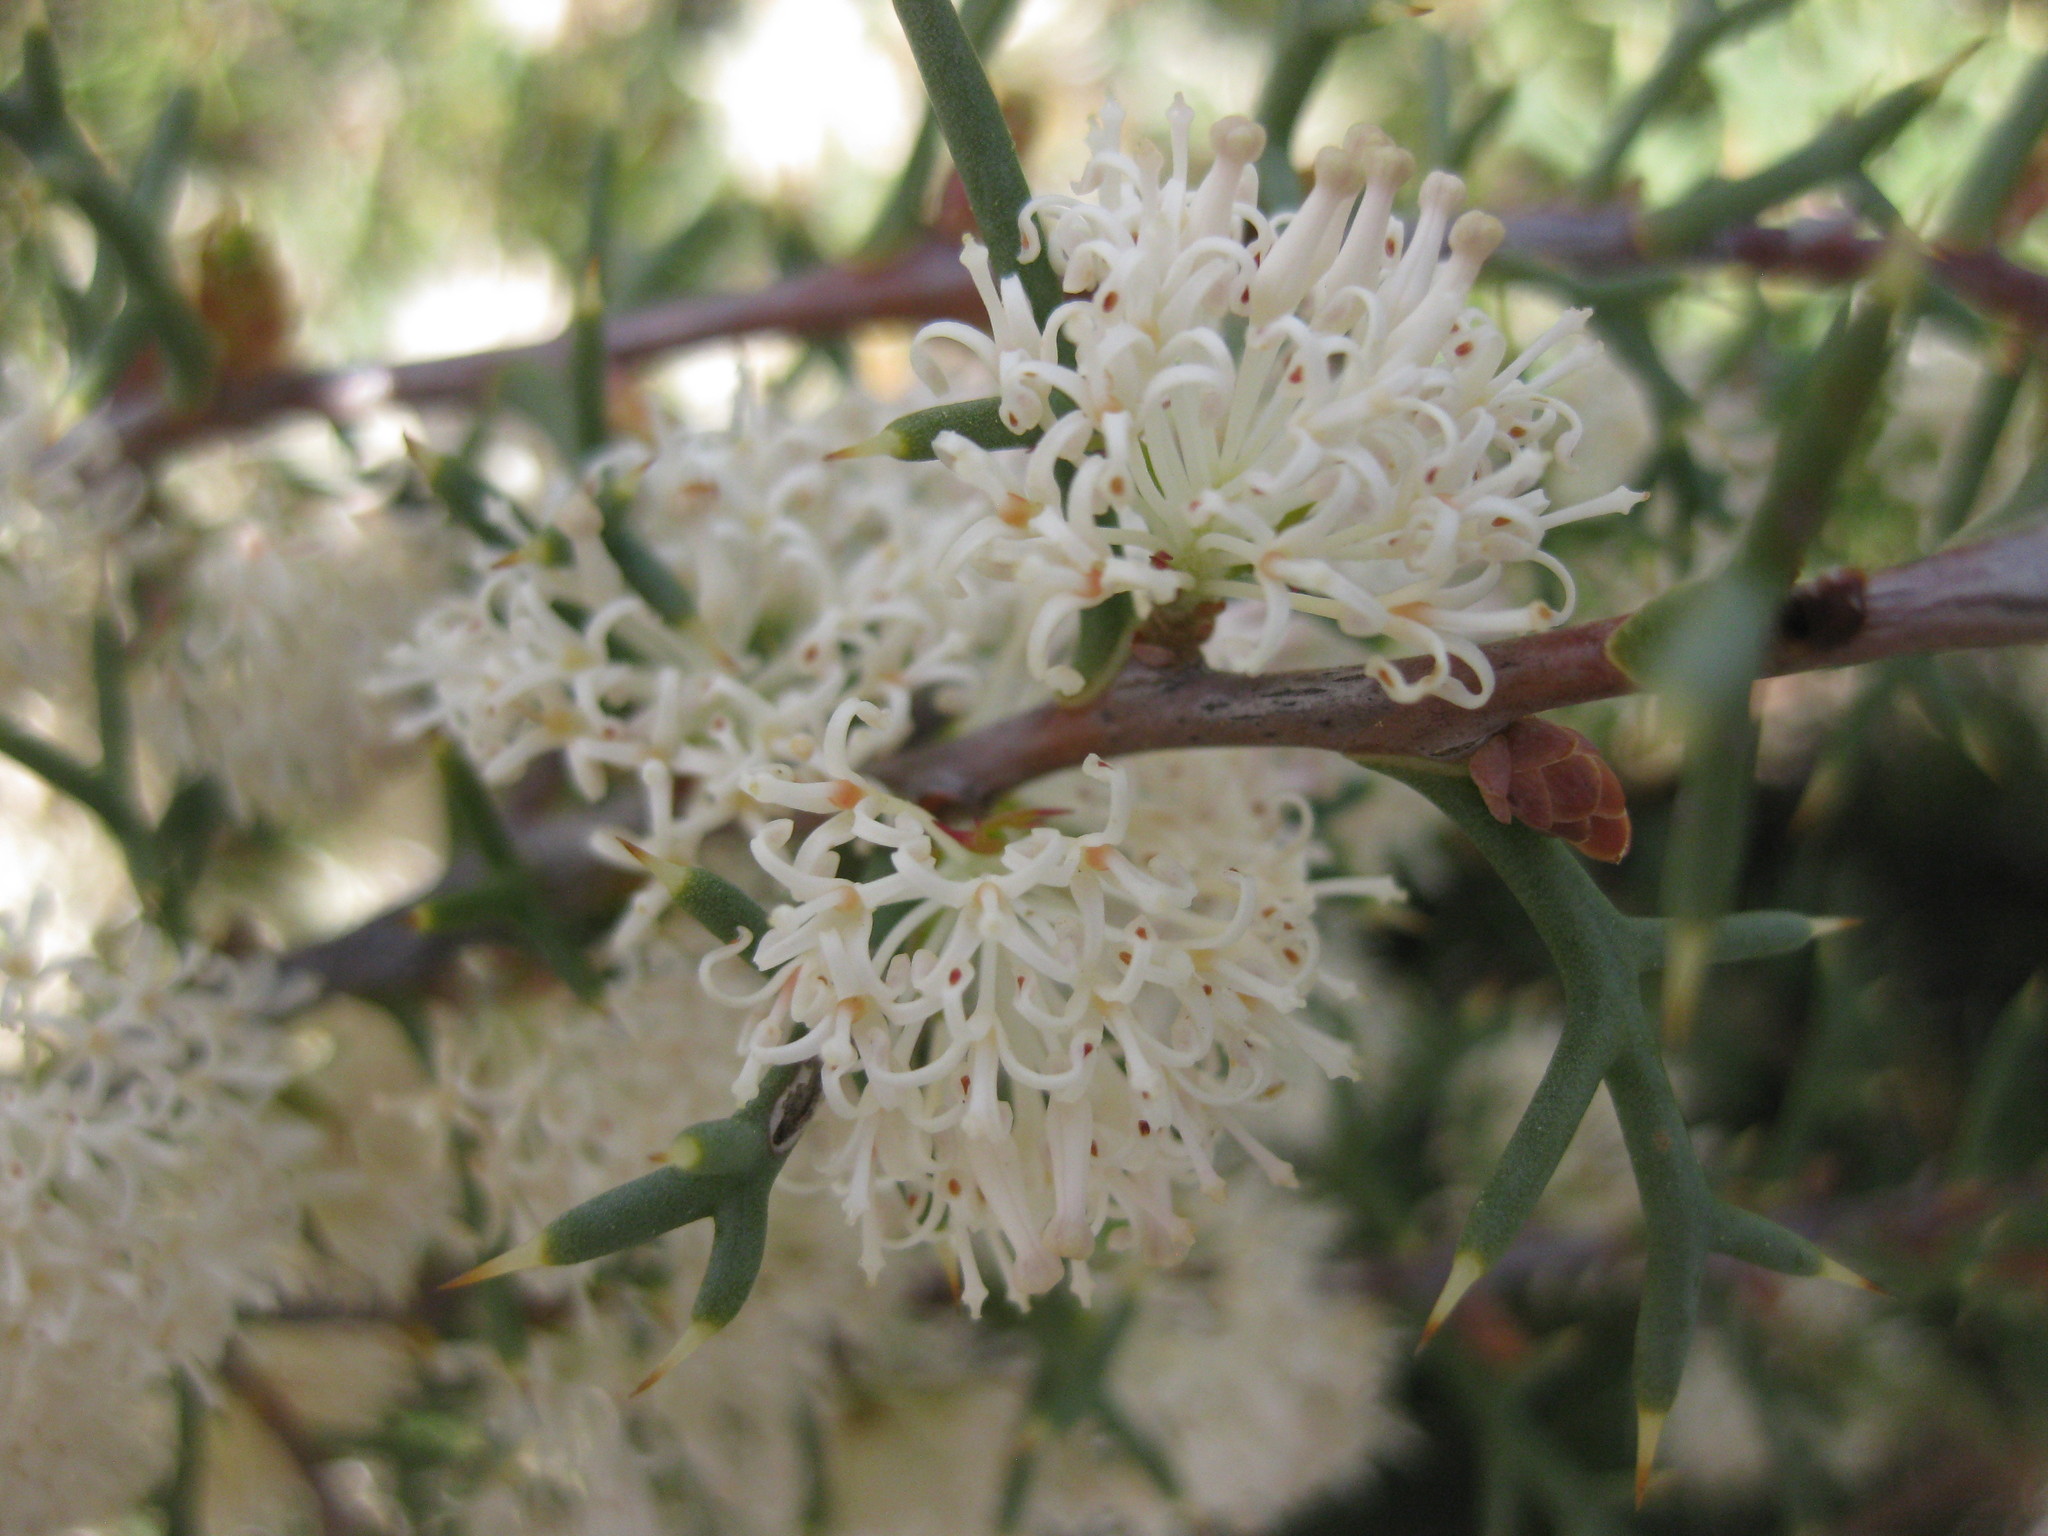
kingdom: Plantae
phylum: Tracheophyta
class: Magnoliopsida
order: Proteales
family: Proteaceae
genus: Hakea
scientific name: Hakea lissocarpha
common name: Honey bush
